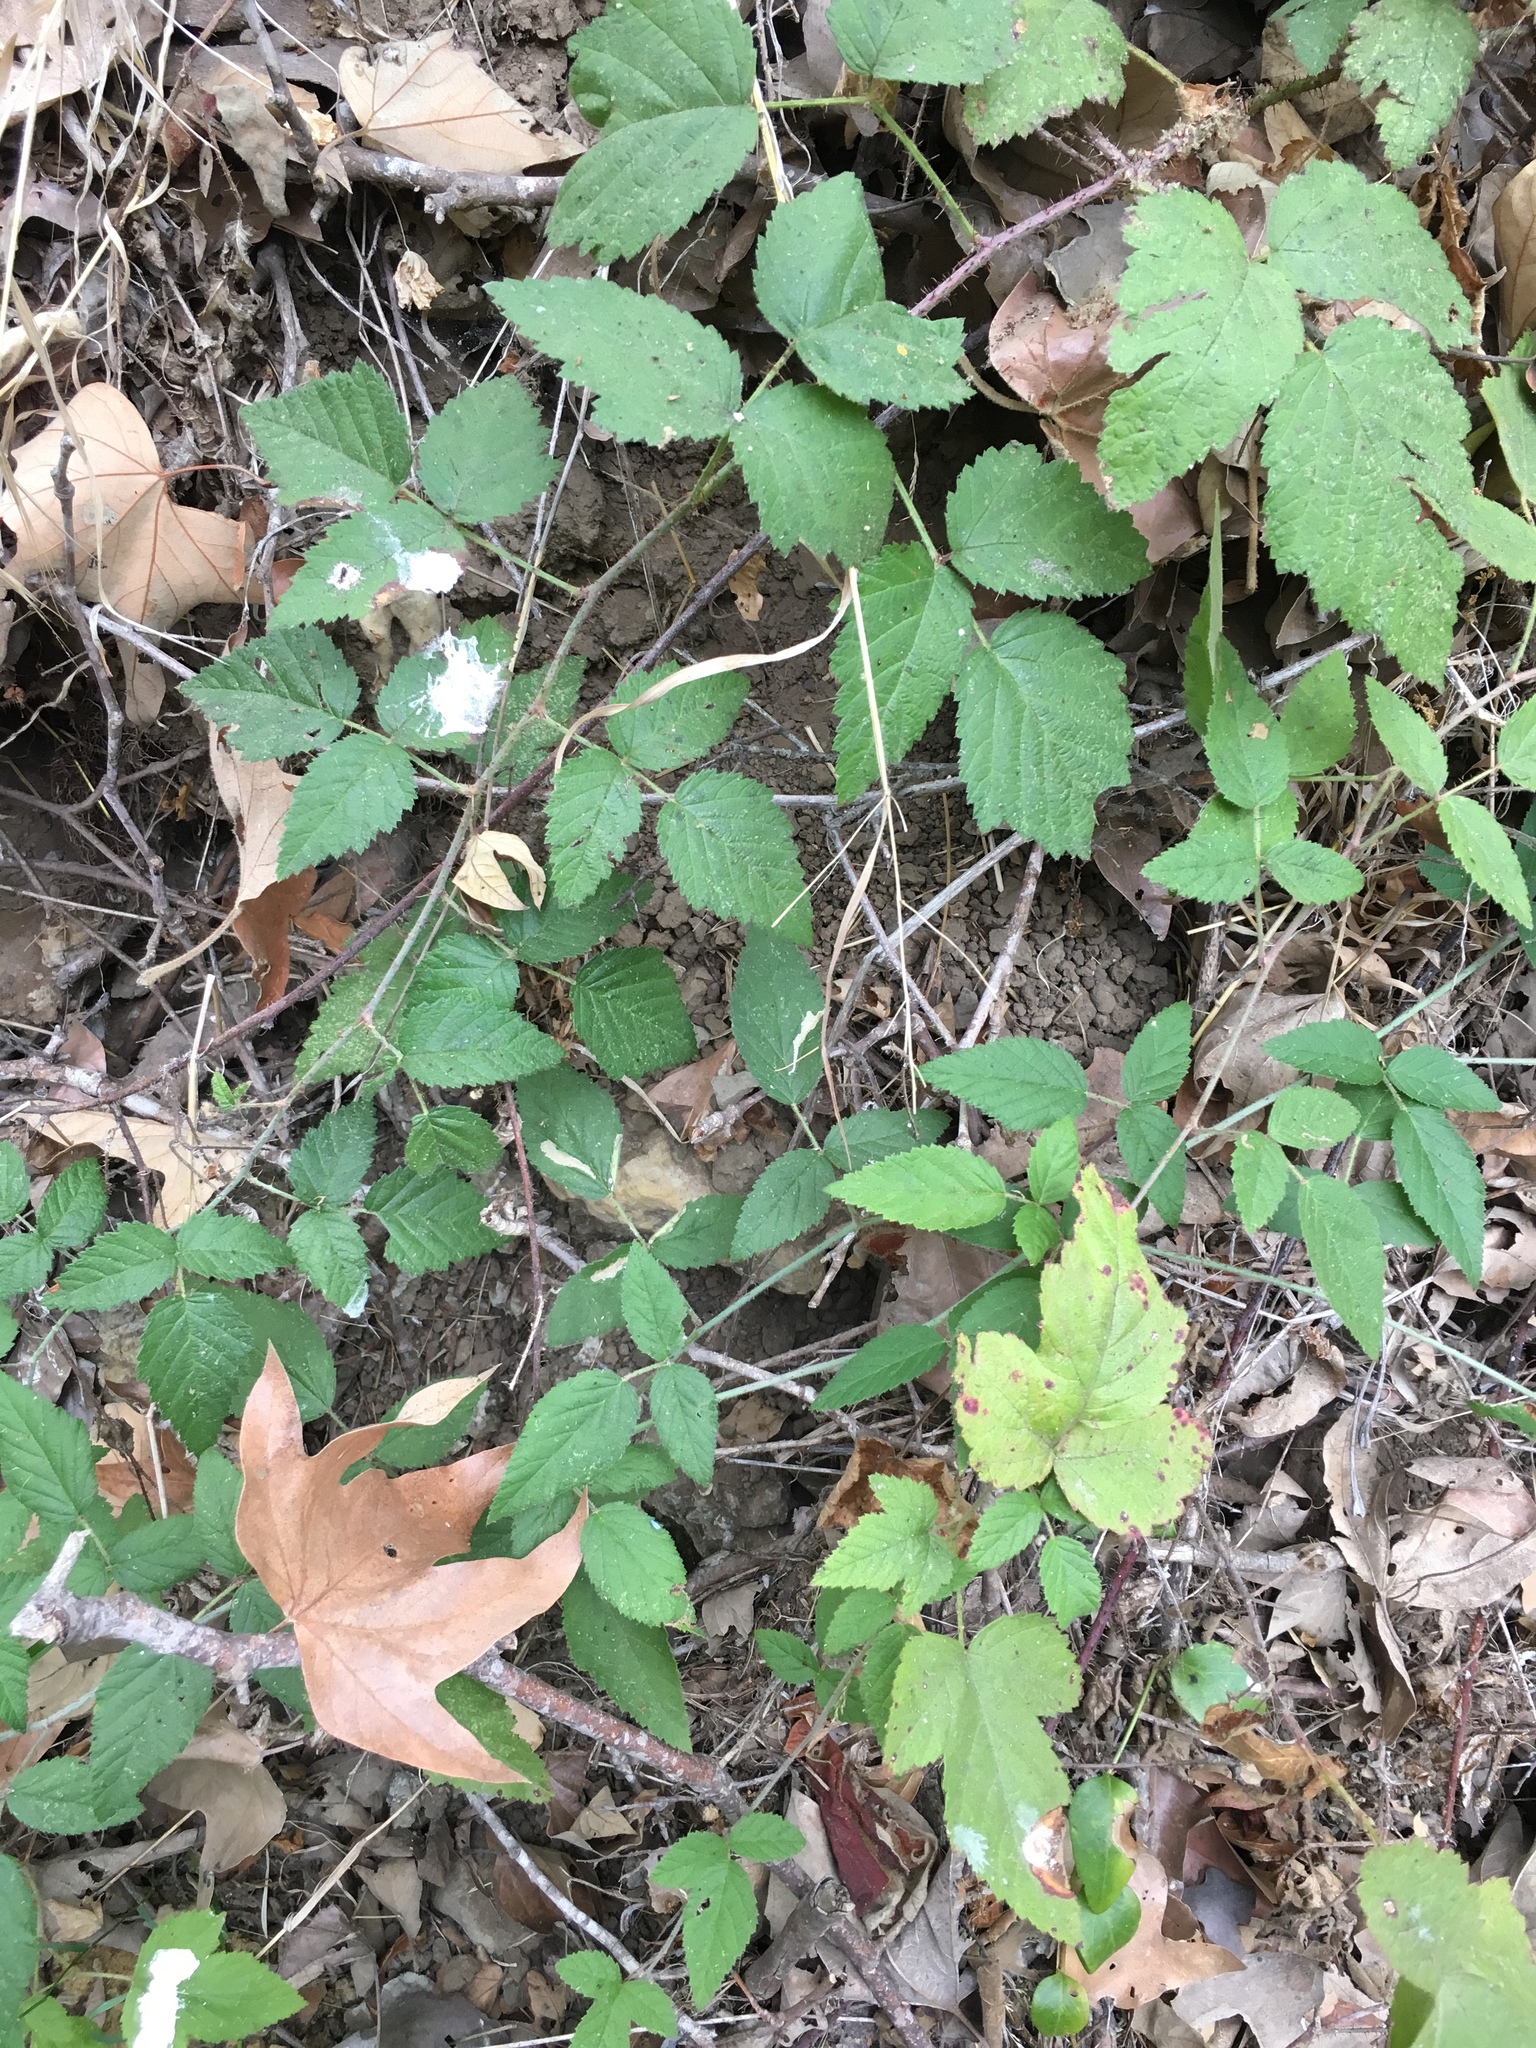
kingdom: Plantae
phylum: Tracheophyta
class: Magnoliopsida
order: Rosales
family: Rosaceae
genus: Rubus
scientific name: Rubus ursinus
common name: Pacific blackberry
